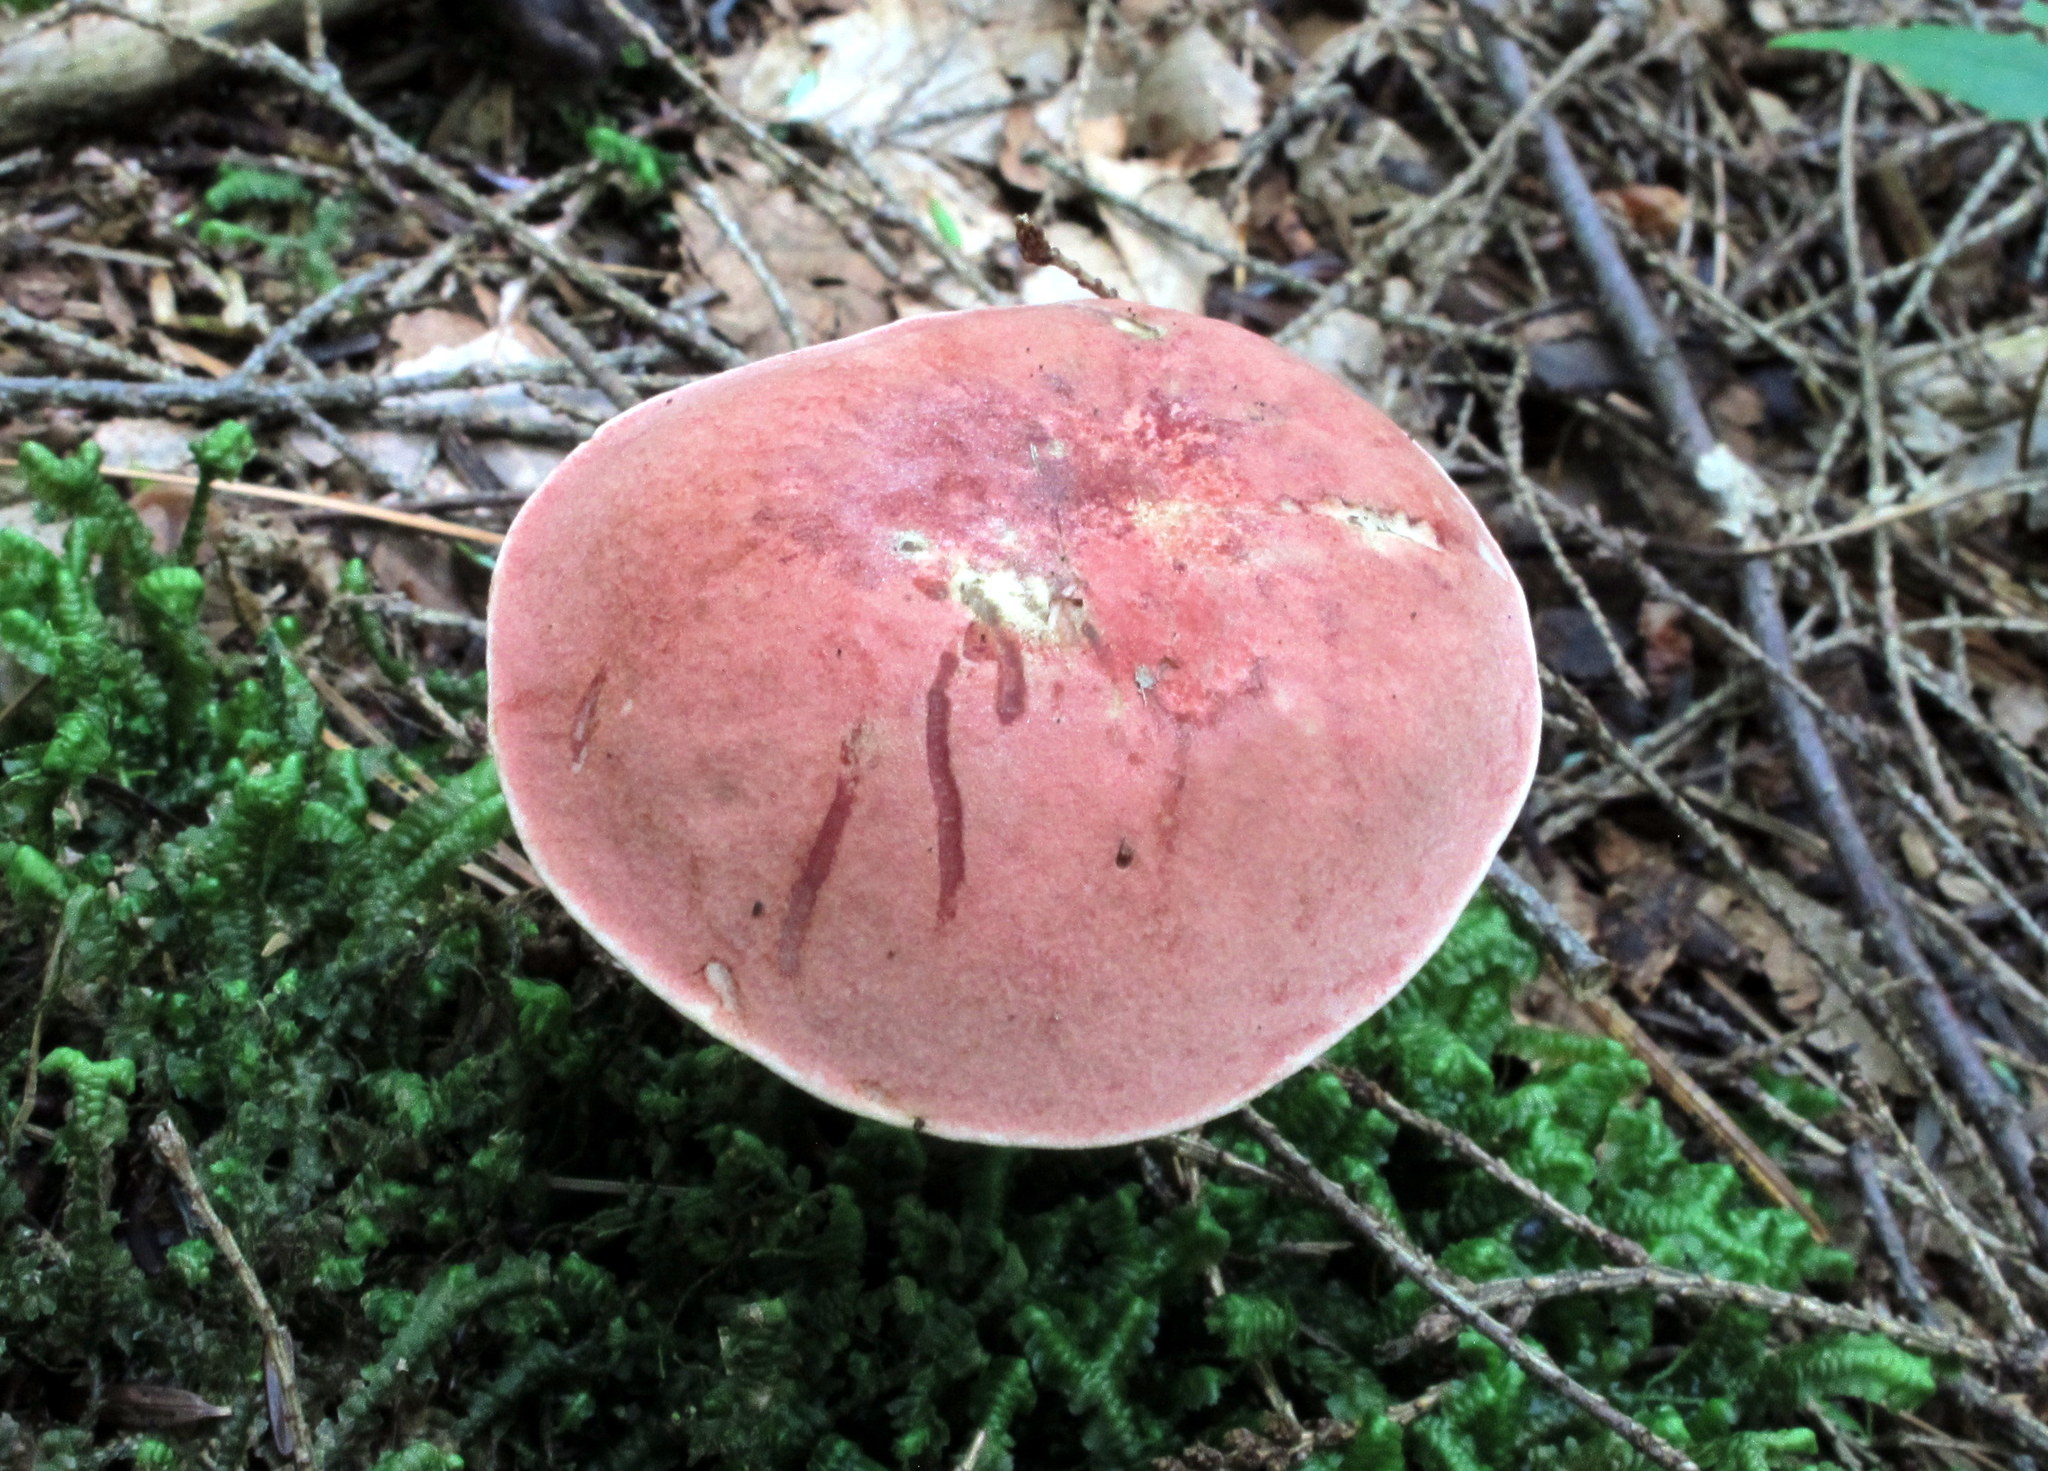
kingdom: Fungi
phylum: Basidiomycota
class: Agaricomycetes
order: Boletales
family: Boletaceae
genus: Boletus
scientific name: Boletus
